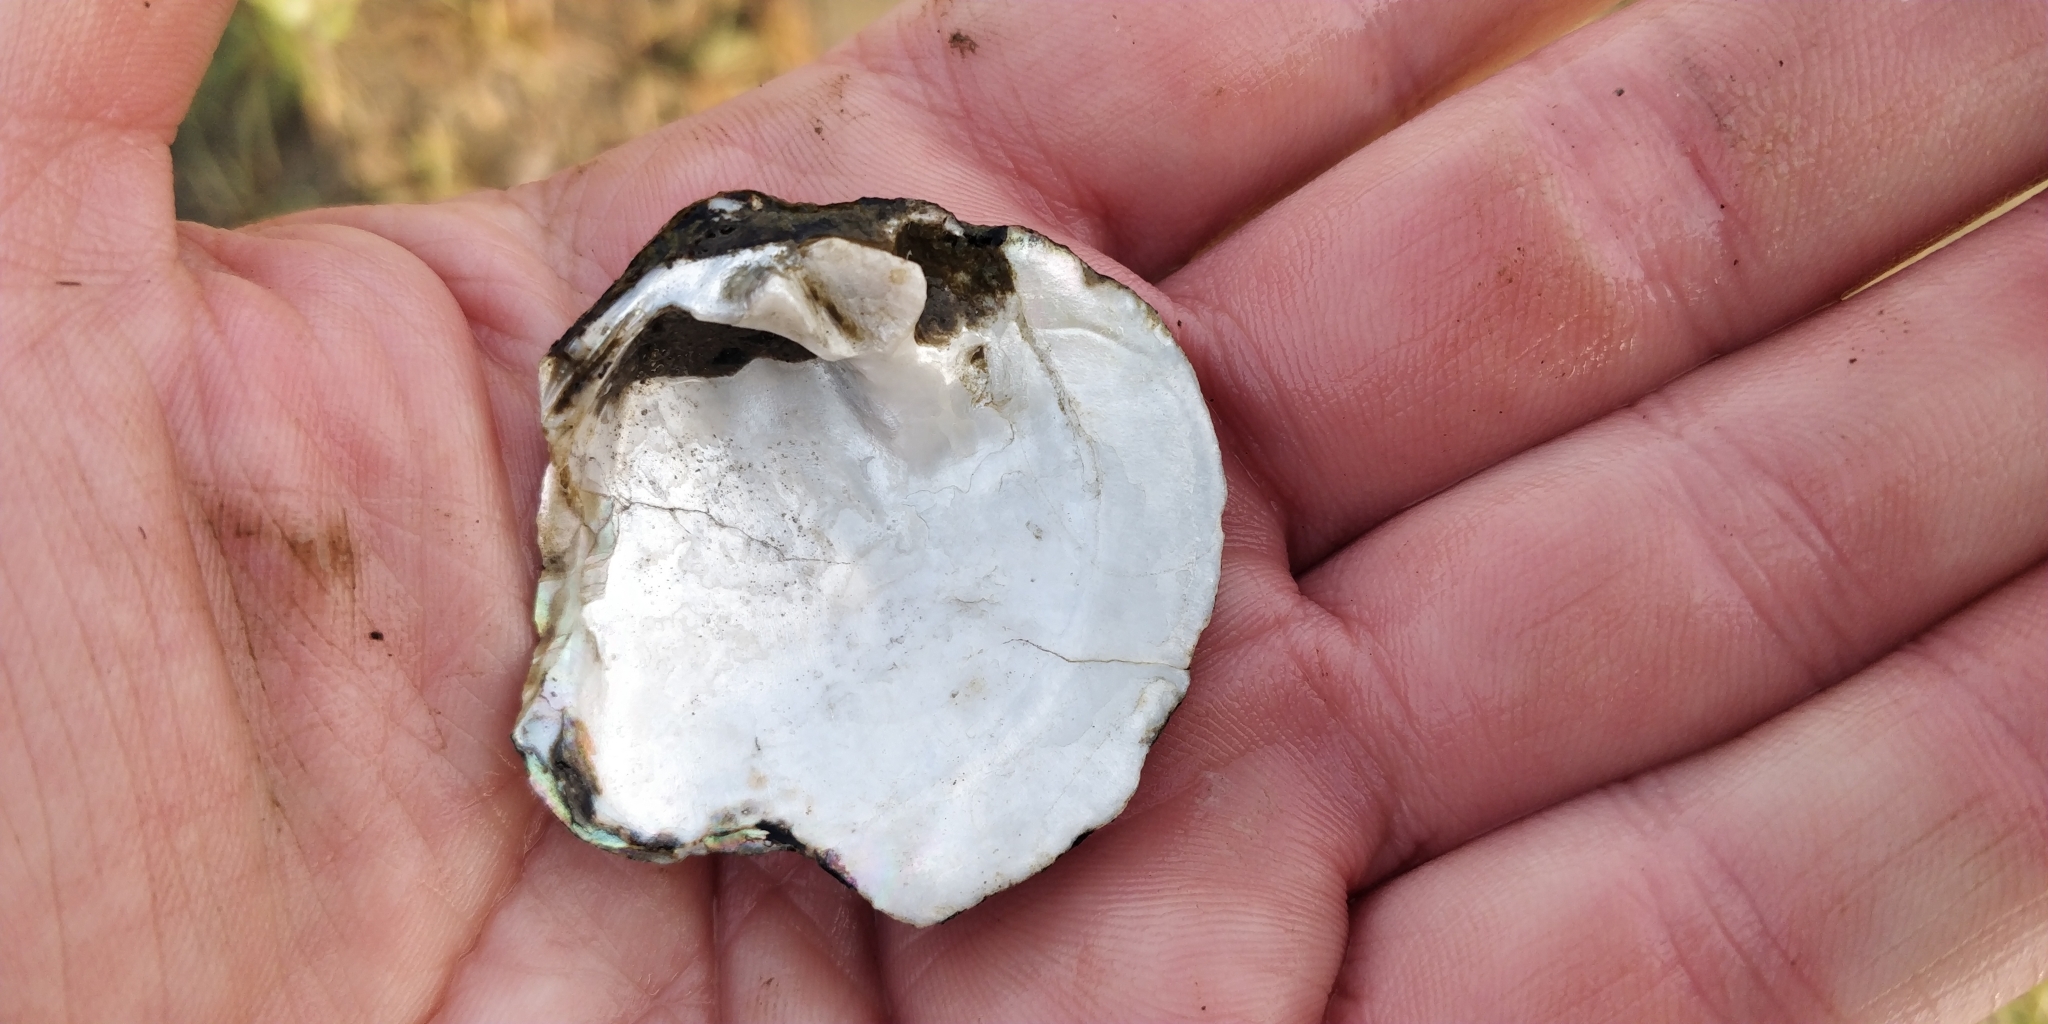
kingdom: Animalia
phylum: Mollusca
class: Bivalvia
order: Unionida
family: Unionidae
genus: Cyclonaias
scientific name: Cyclonaias pustulosa
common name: Pimpleback
